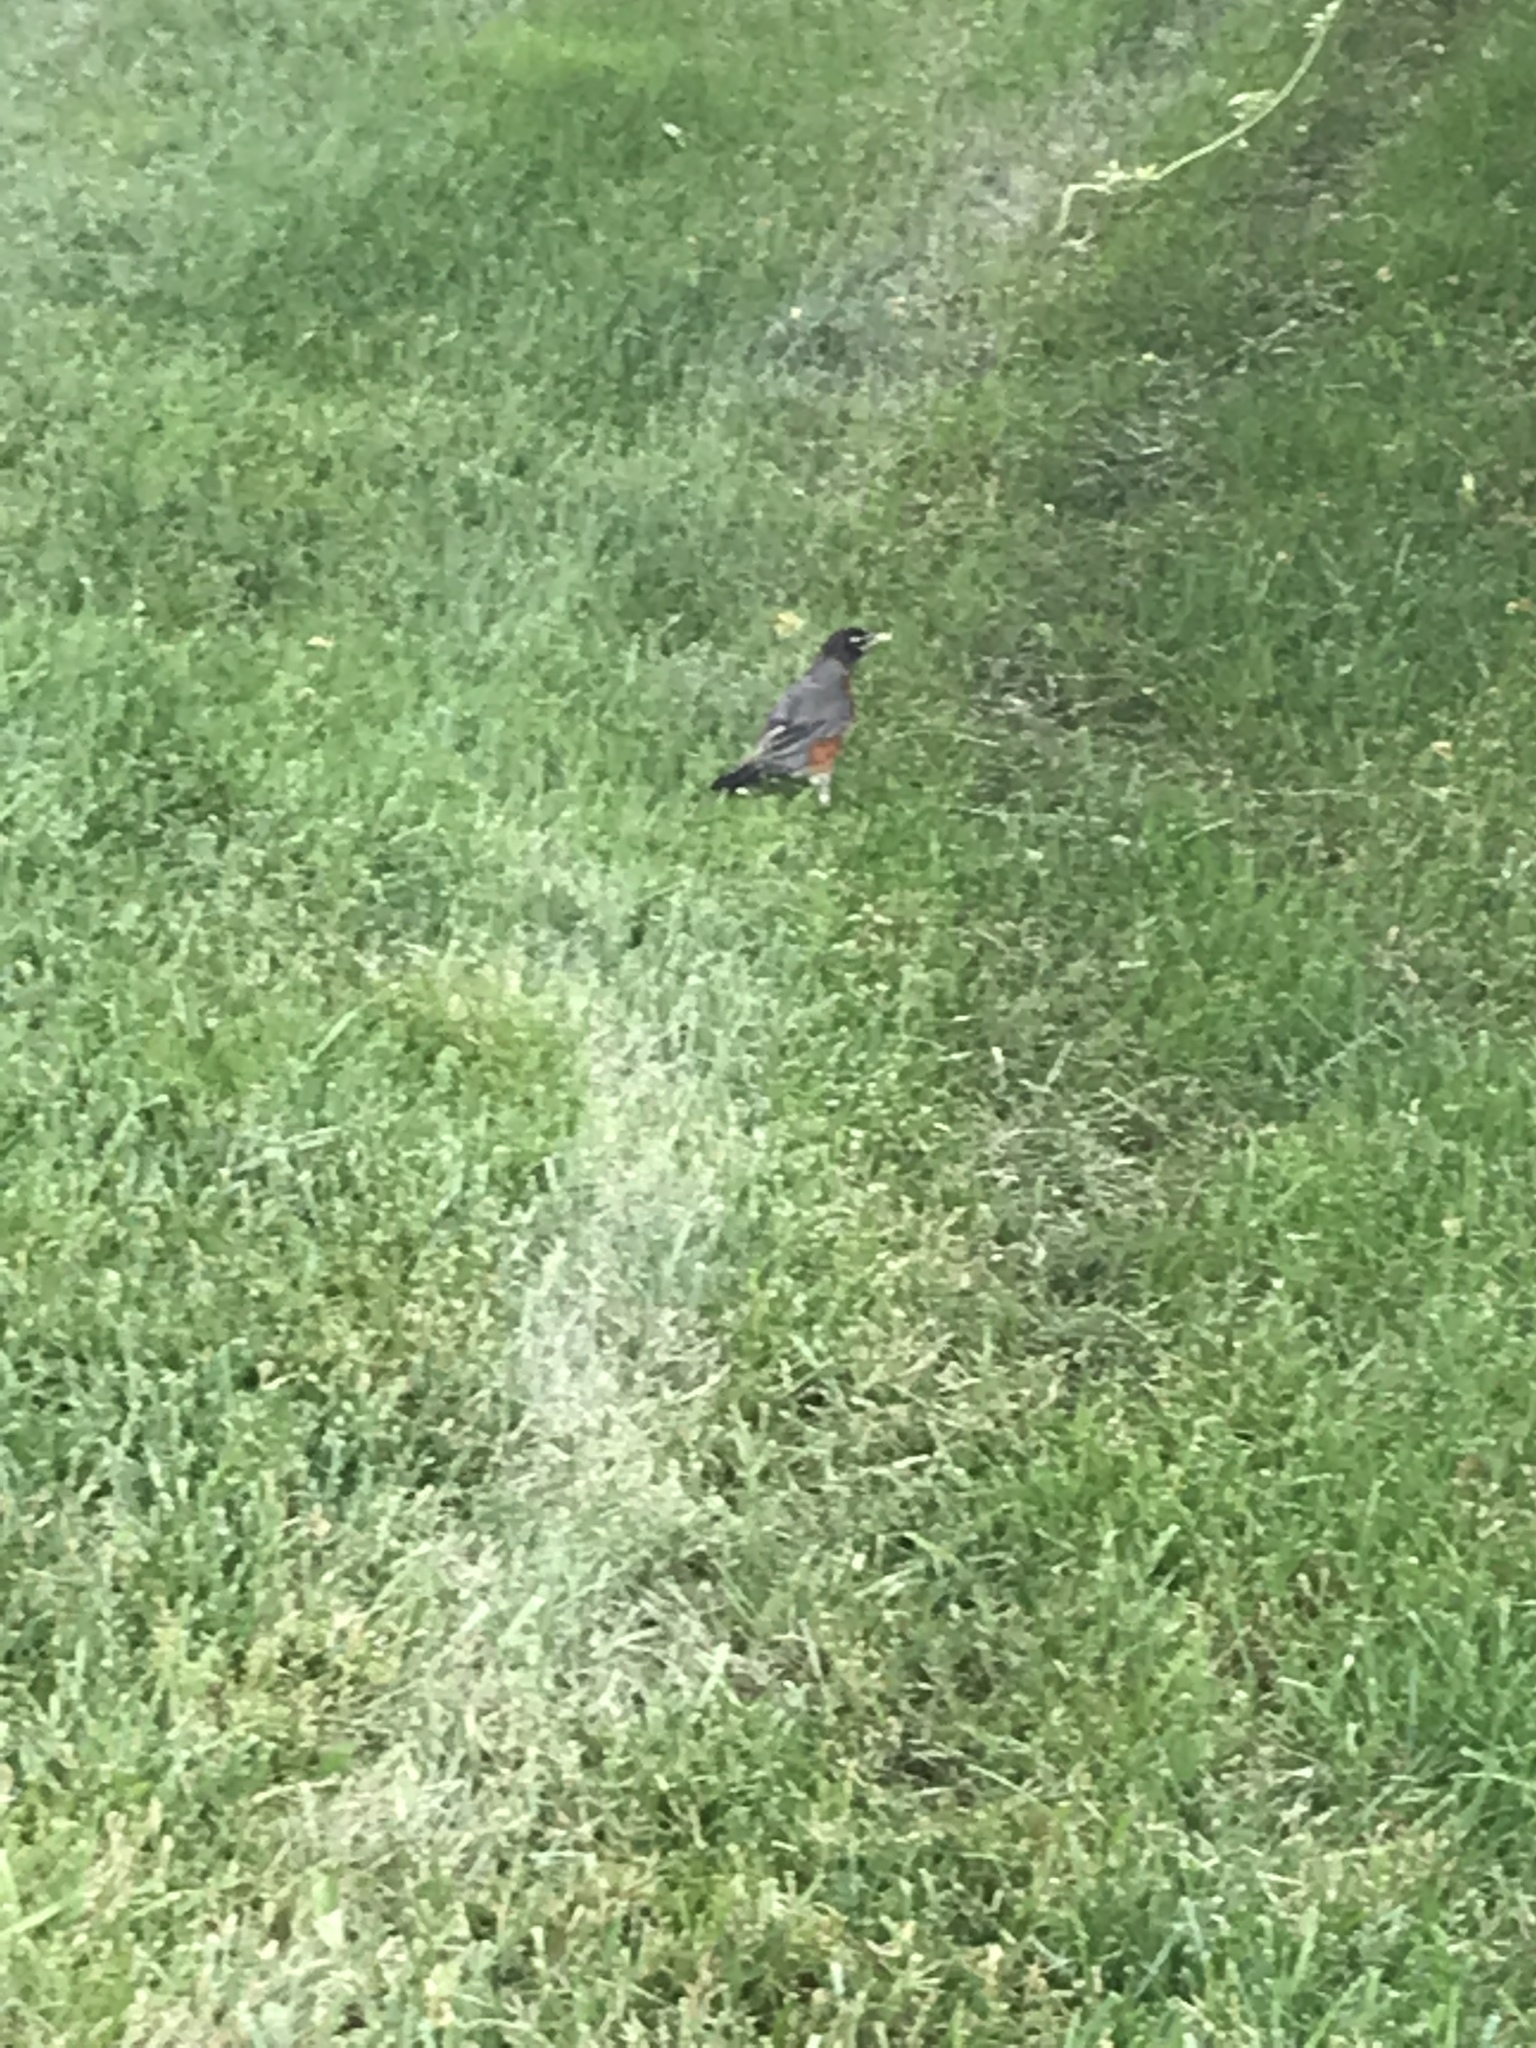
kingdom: Animalia
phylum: Chordata
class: Aves
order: Passeriformes
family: Turdidae
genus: Turdus
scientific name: Turdus migratorius
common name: American robin
